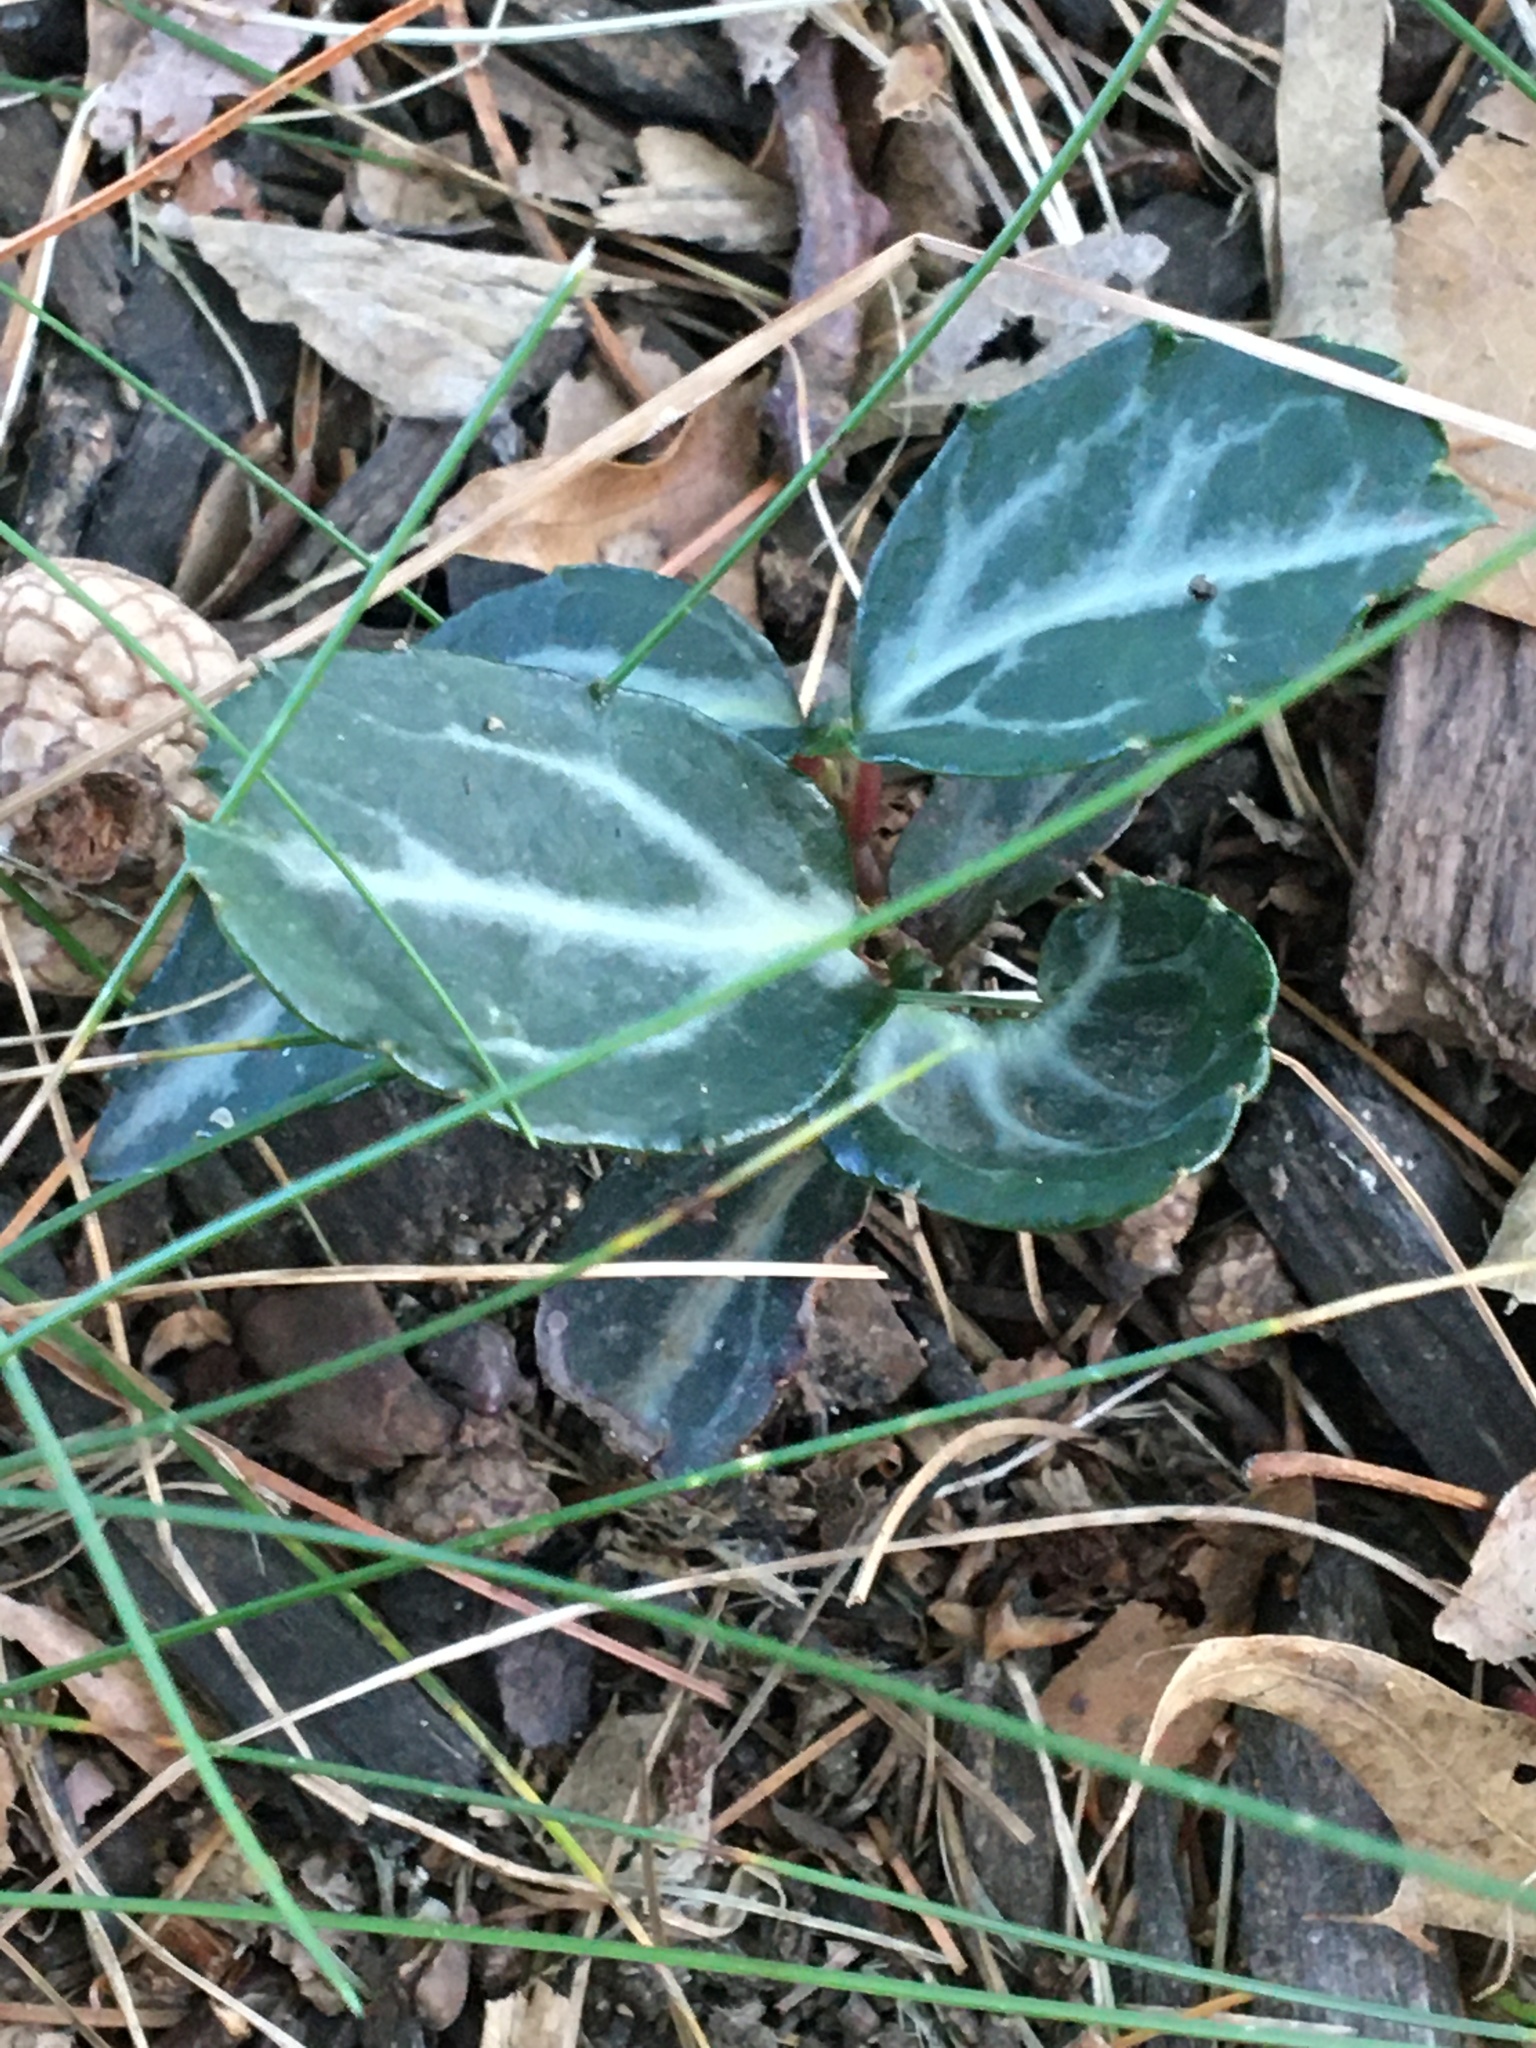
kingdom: Plantae
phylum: Tracheophyta
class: Magnoliopsida
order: Ericales
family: Ericaceae
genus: Chimaphila
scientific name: Chimaphila maculata
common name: Spotted pipsissewa
